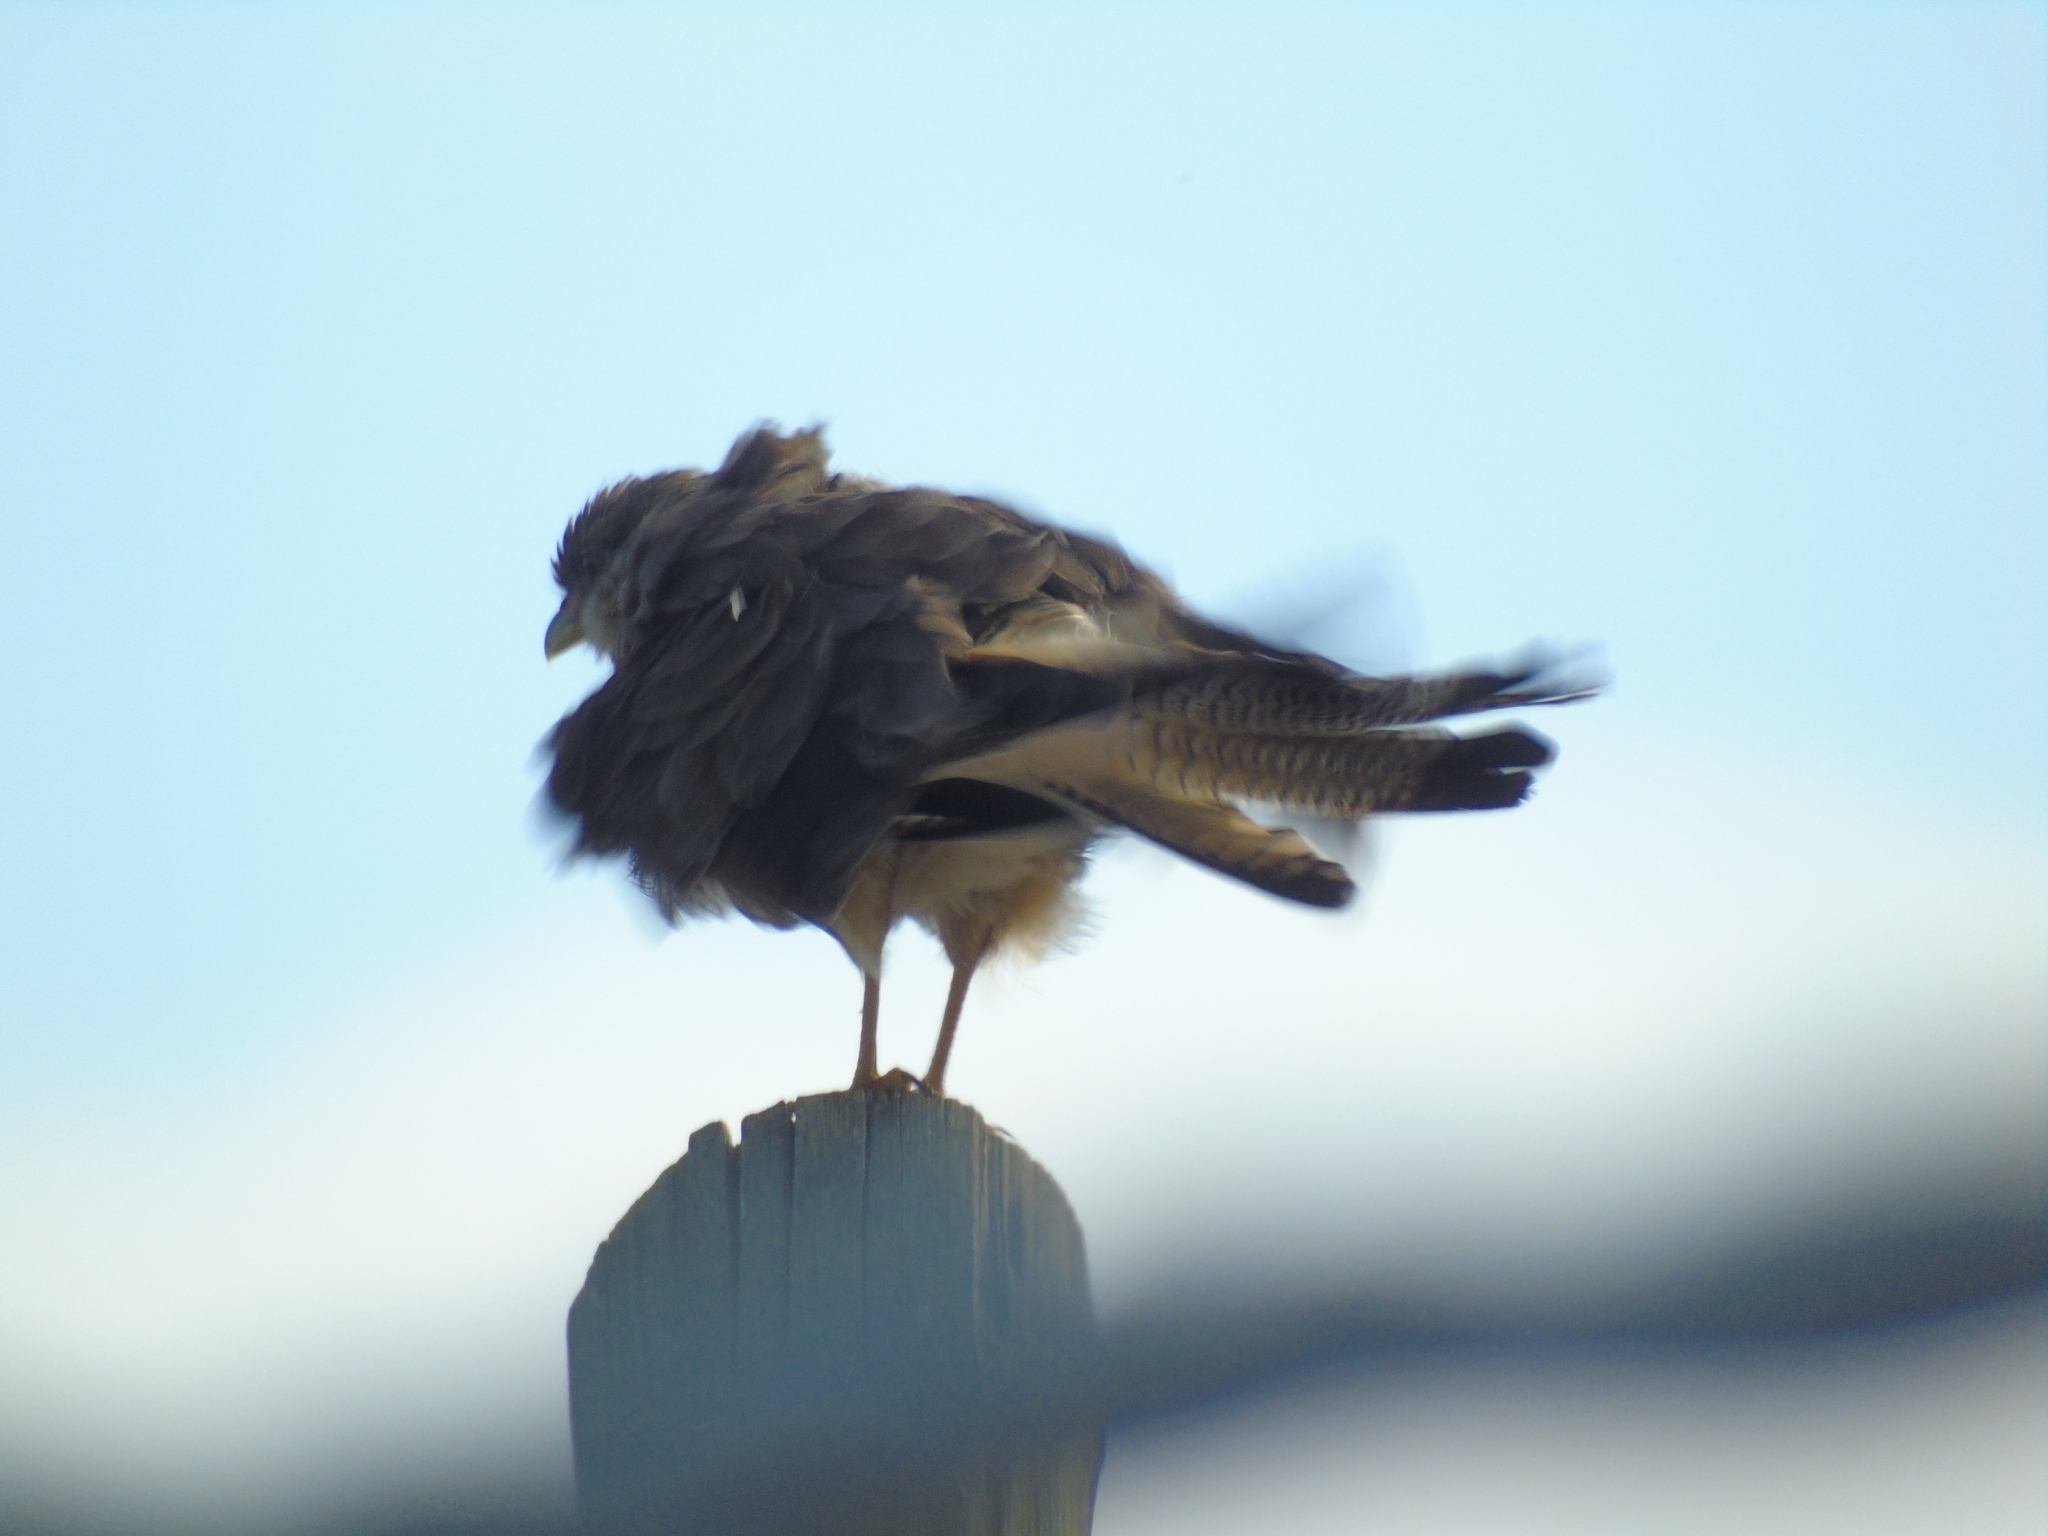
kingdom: Animalia
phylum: Chordata
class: Aves
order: Falconiformes
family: Falconidae
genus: Daptrius
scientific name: Daptrius
